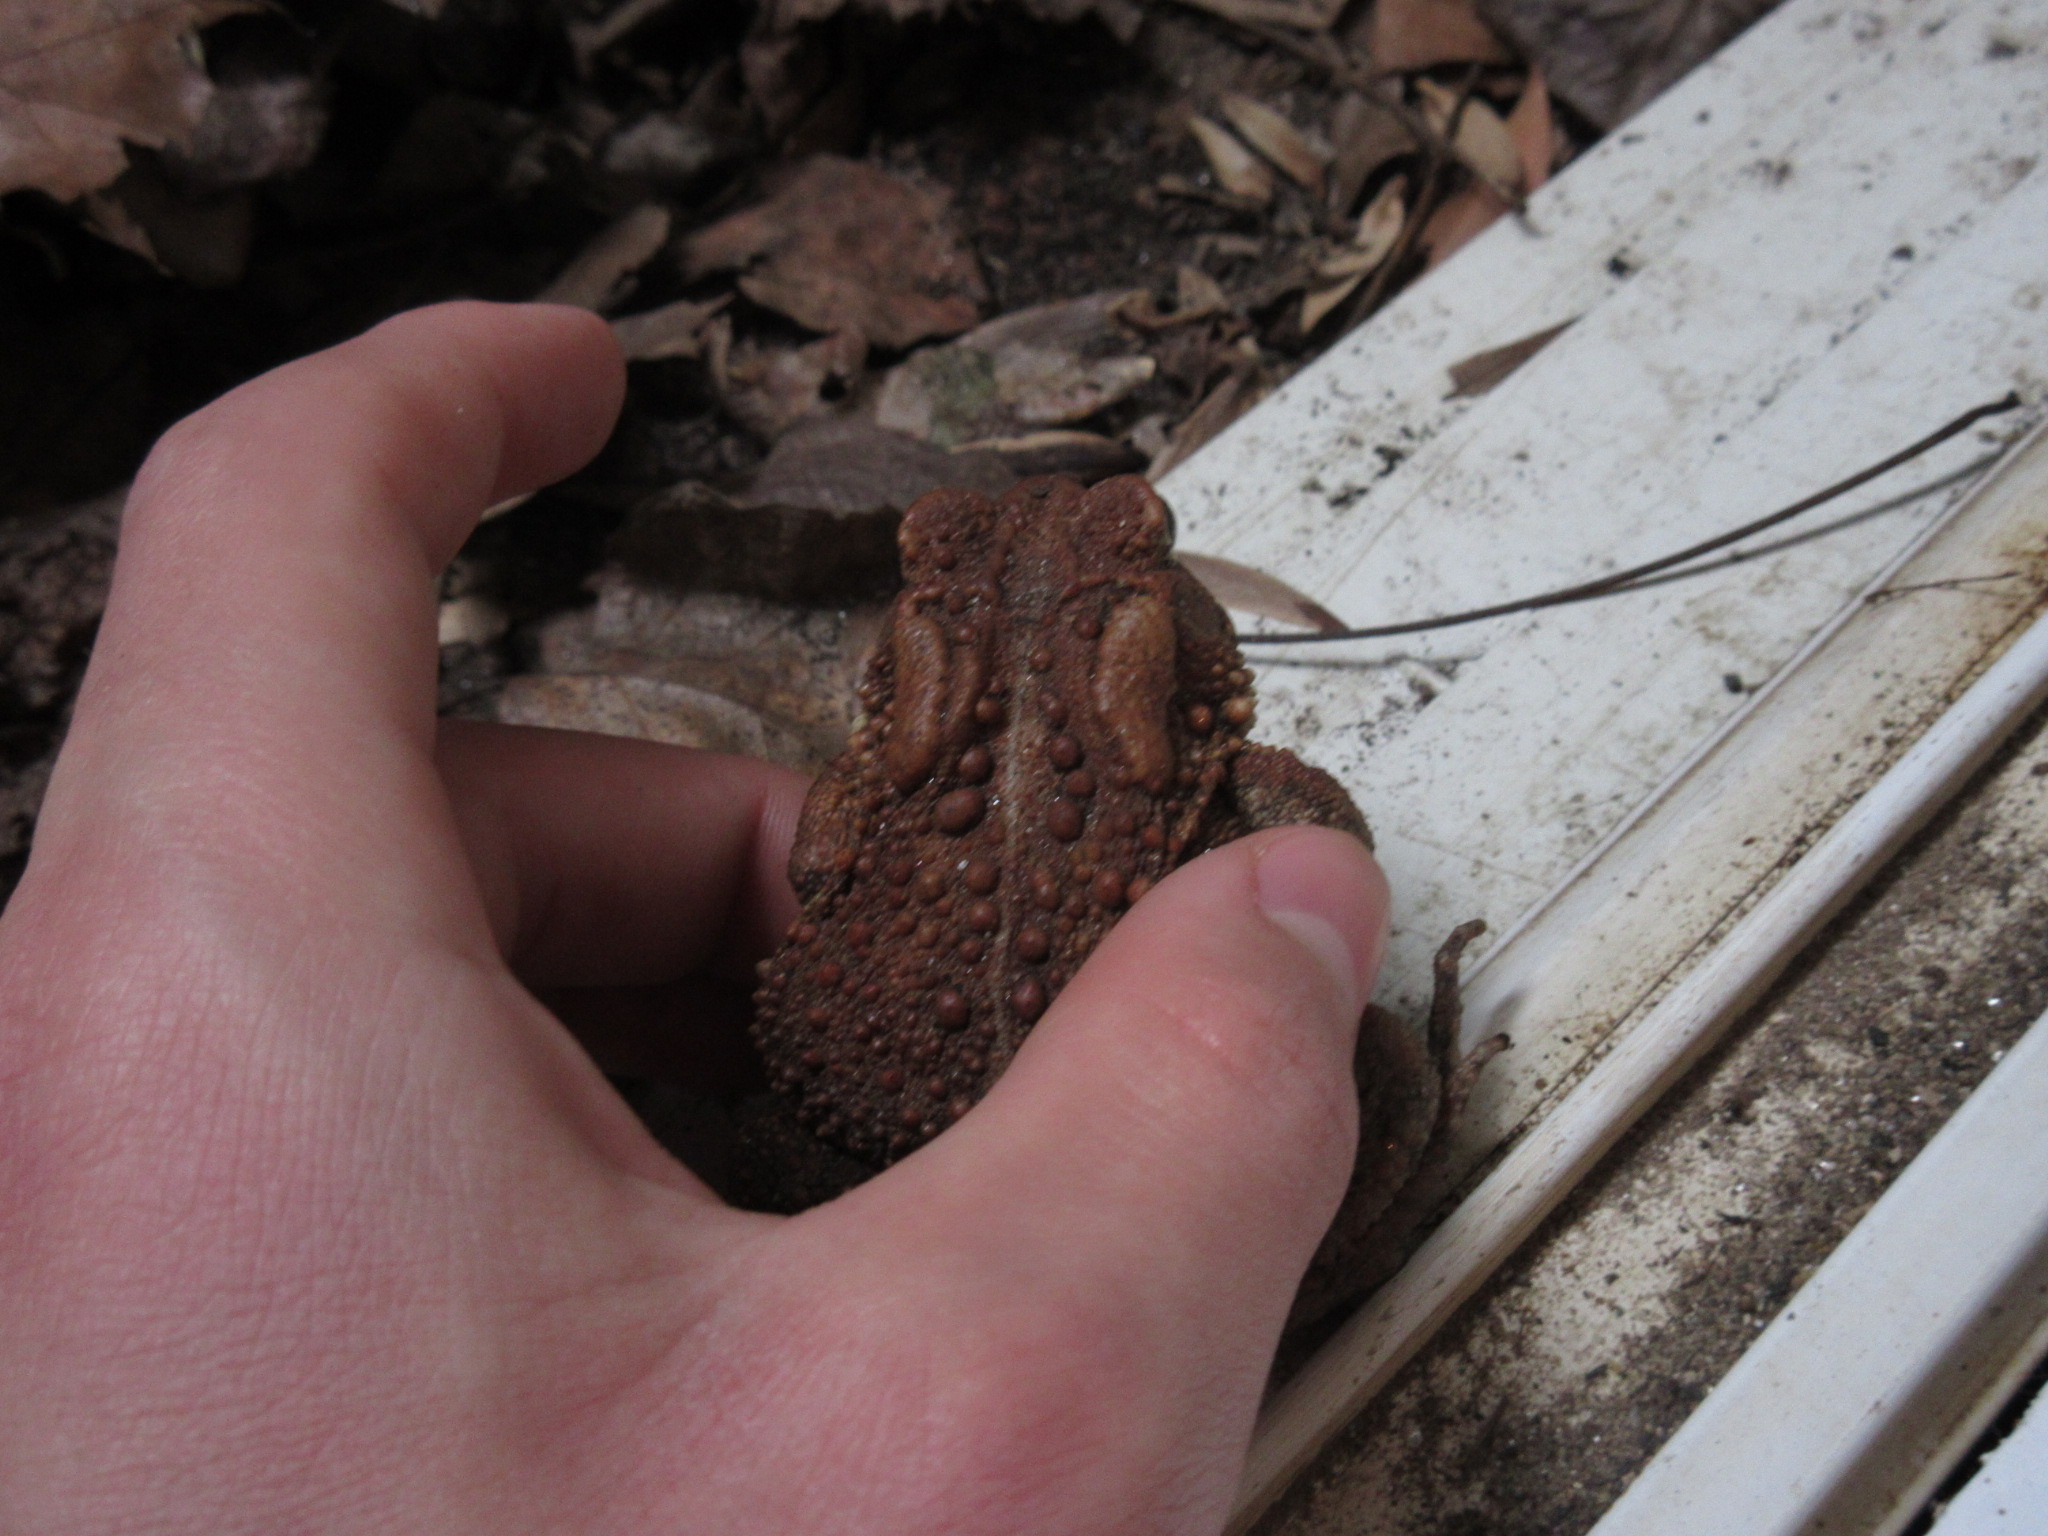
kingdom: Animalia
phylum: Chordata
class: Amphibia
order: Anura
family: Bufonidae
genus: Anaxyrus
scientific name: Anaxyrus americanus
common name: American toad
